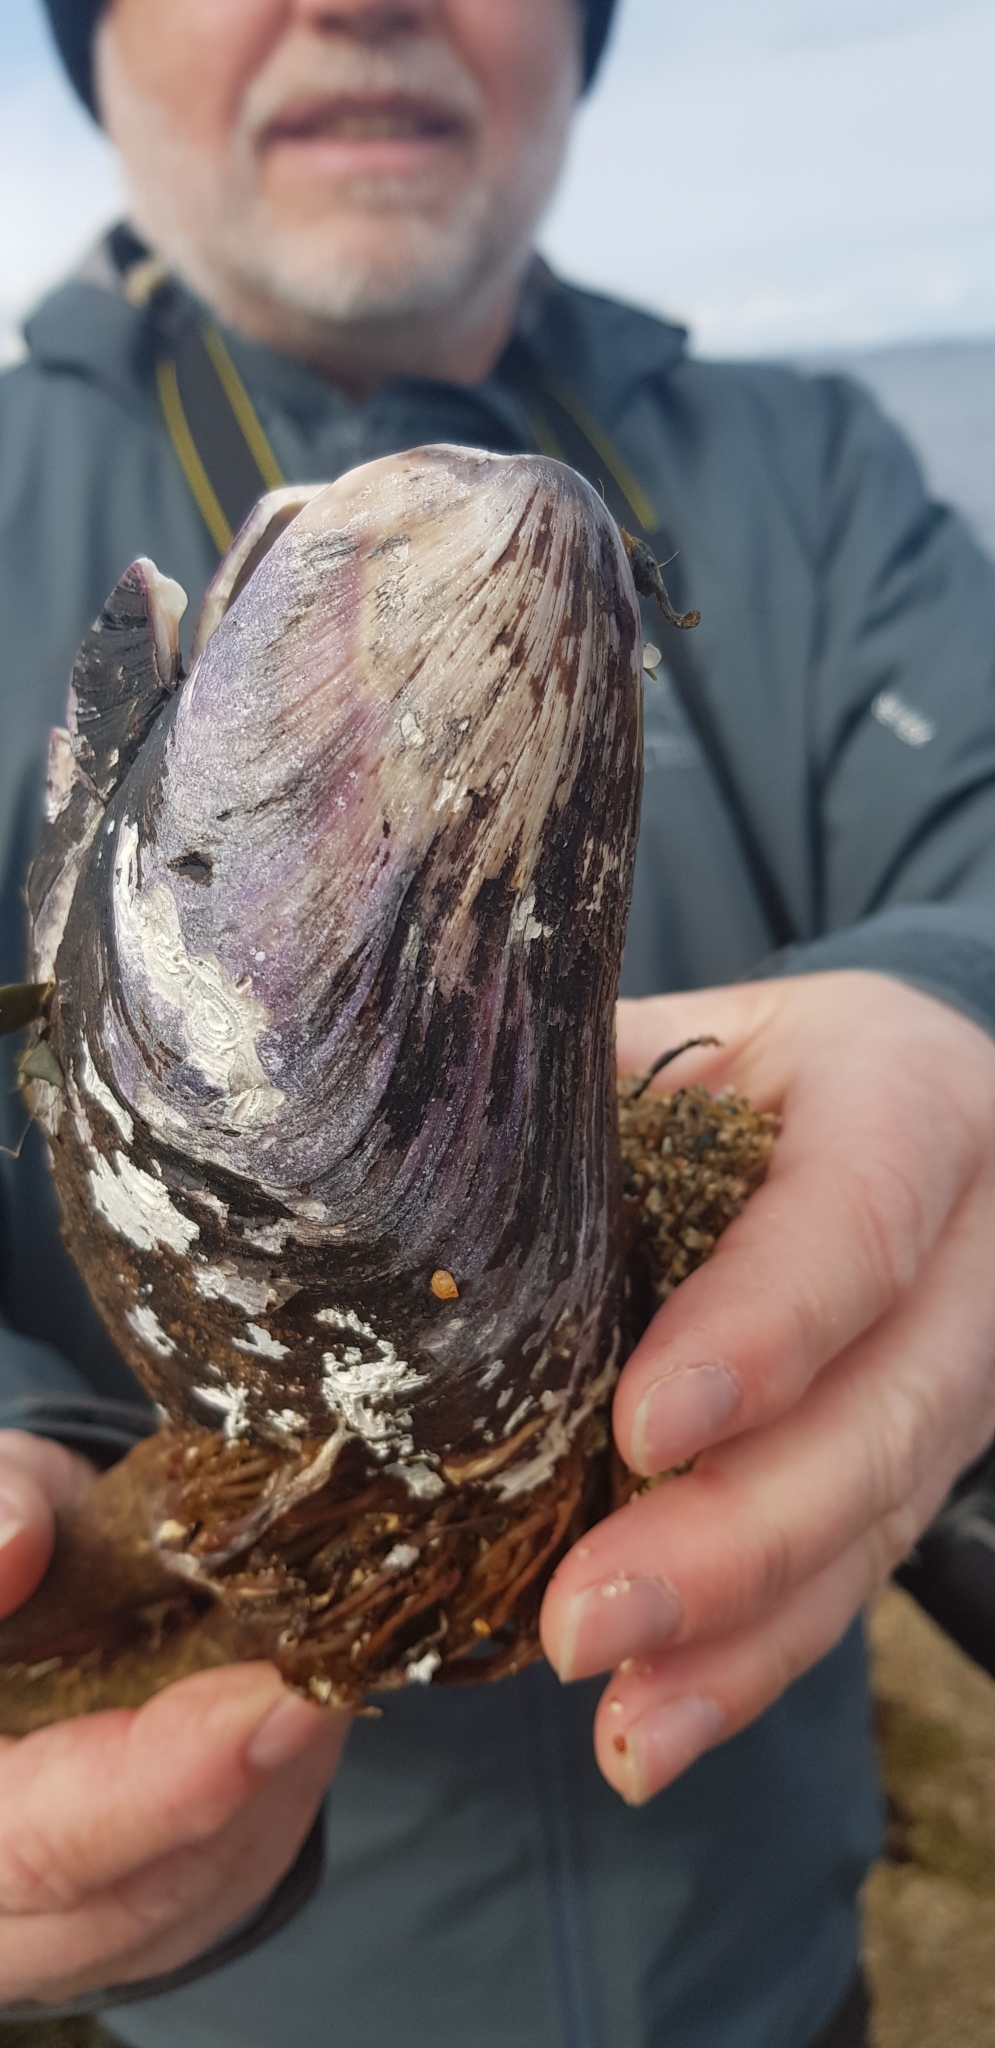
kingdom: Animalia
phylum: Mollusca
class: Bivalvia
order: Mytilida
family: Mytilidae
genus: Modiolus
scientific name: Modiolus modiolus
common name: Horse-mussel
